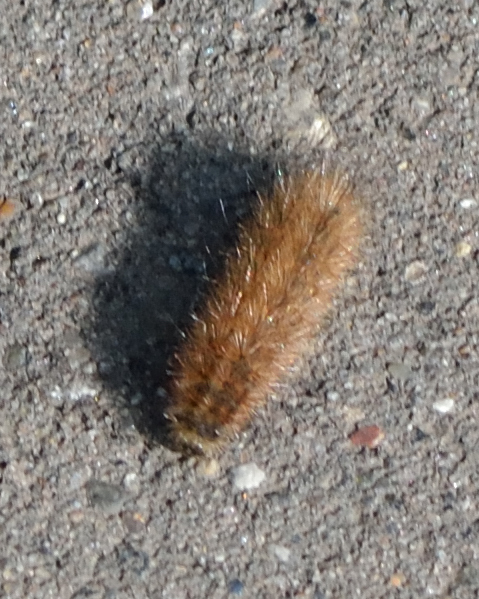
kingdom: Animalia
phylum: Arthropoda
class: Insecta
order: Lepidoptera
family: Erebidae
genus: Phragmatobia
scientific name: Phragmatobia fuliginosa
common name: Ruby tiger
